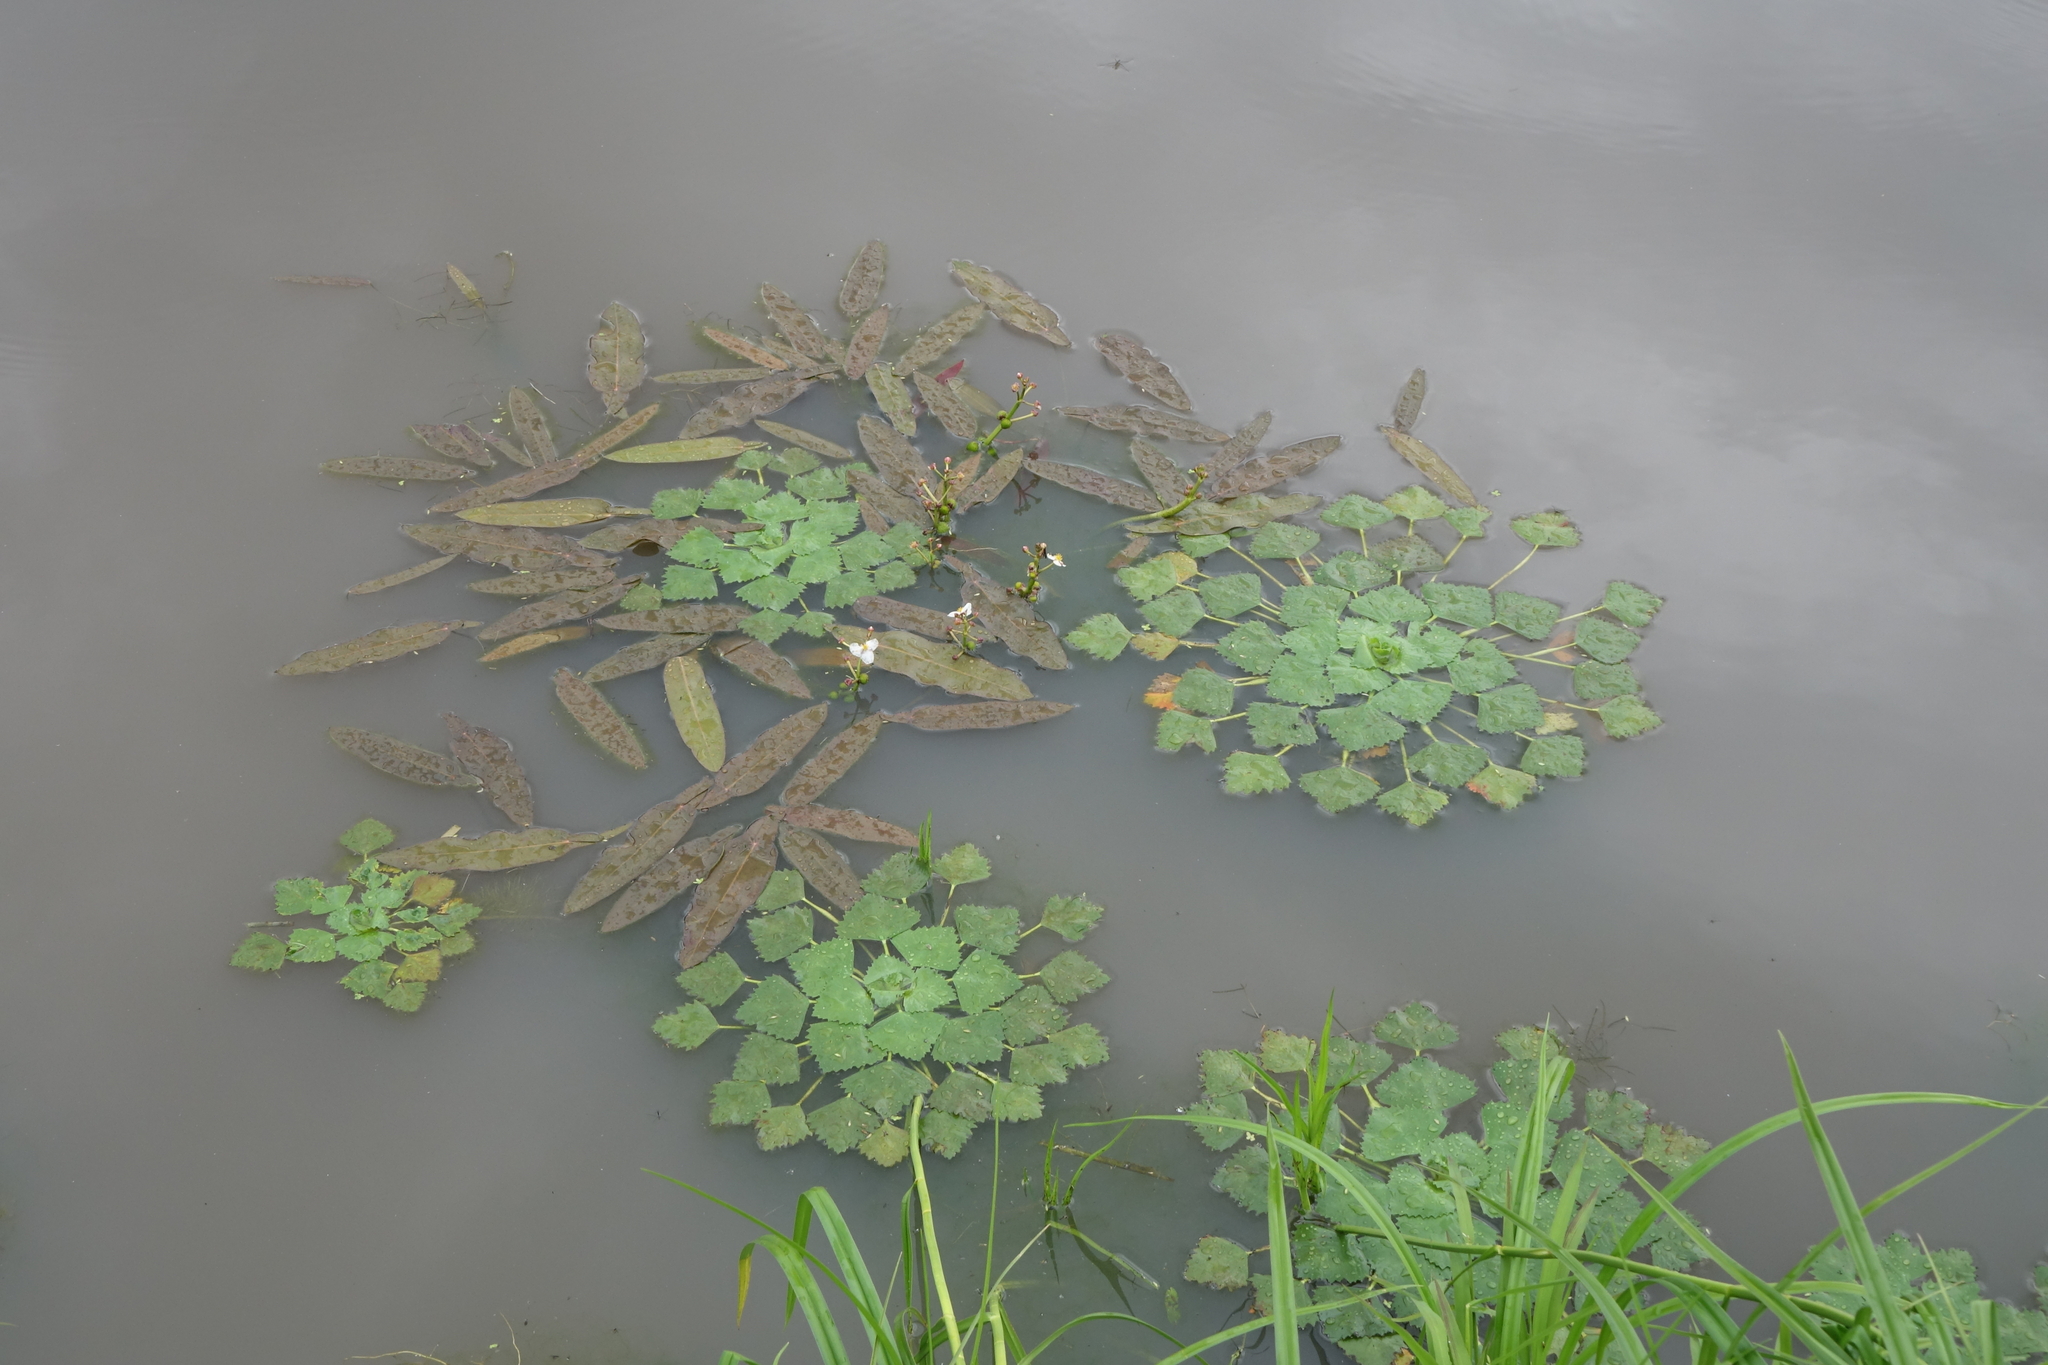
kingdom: Plantae
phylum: Tracheophyta
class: Magnoliopsida
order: Myrtales
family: Lythraceae
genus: Trapa
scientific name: Trapa natans
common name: Water chestnut
